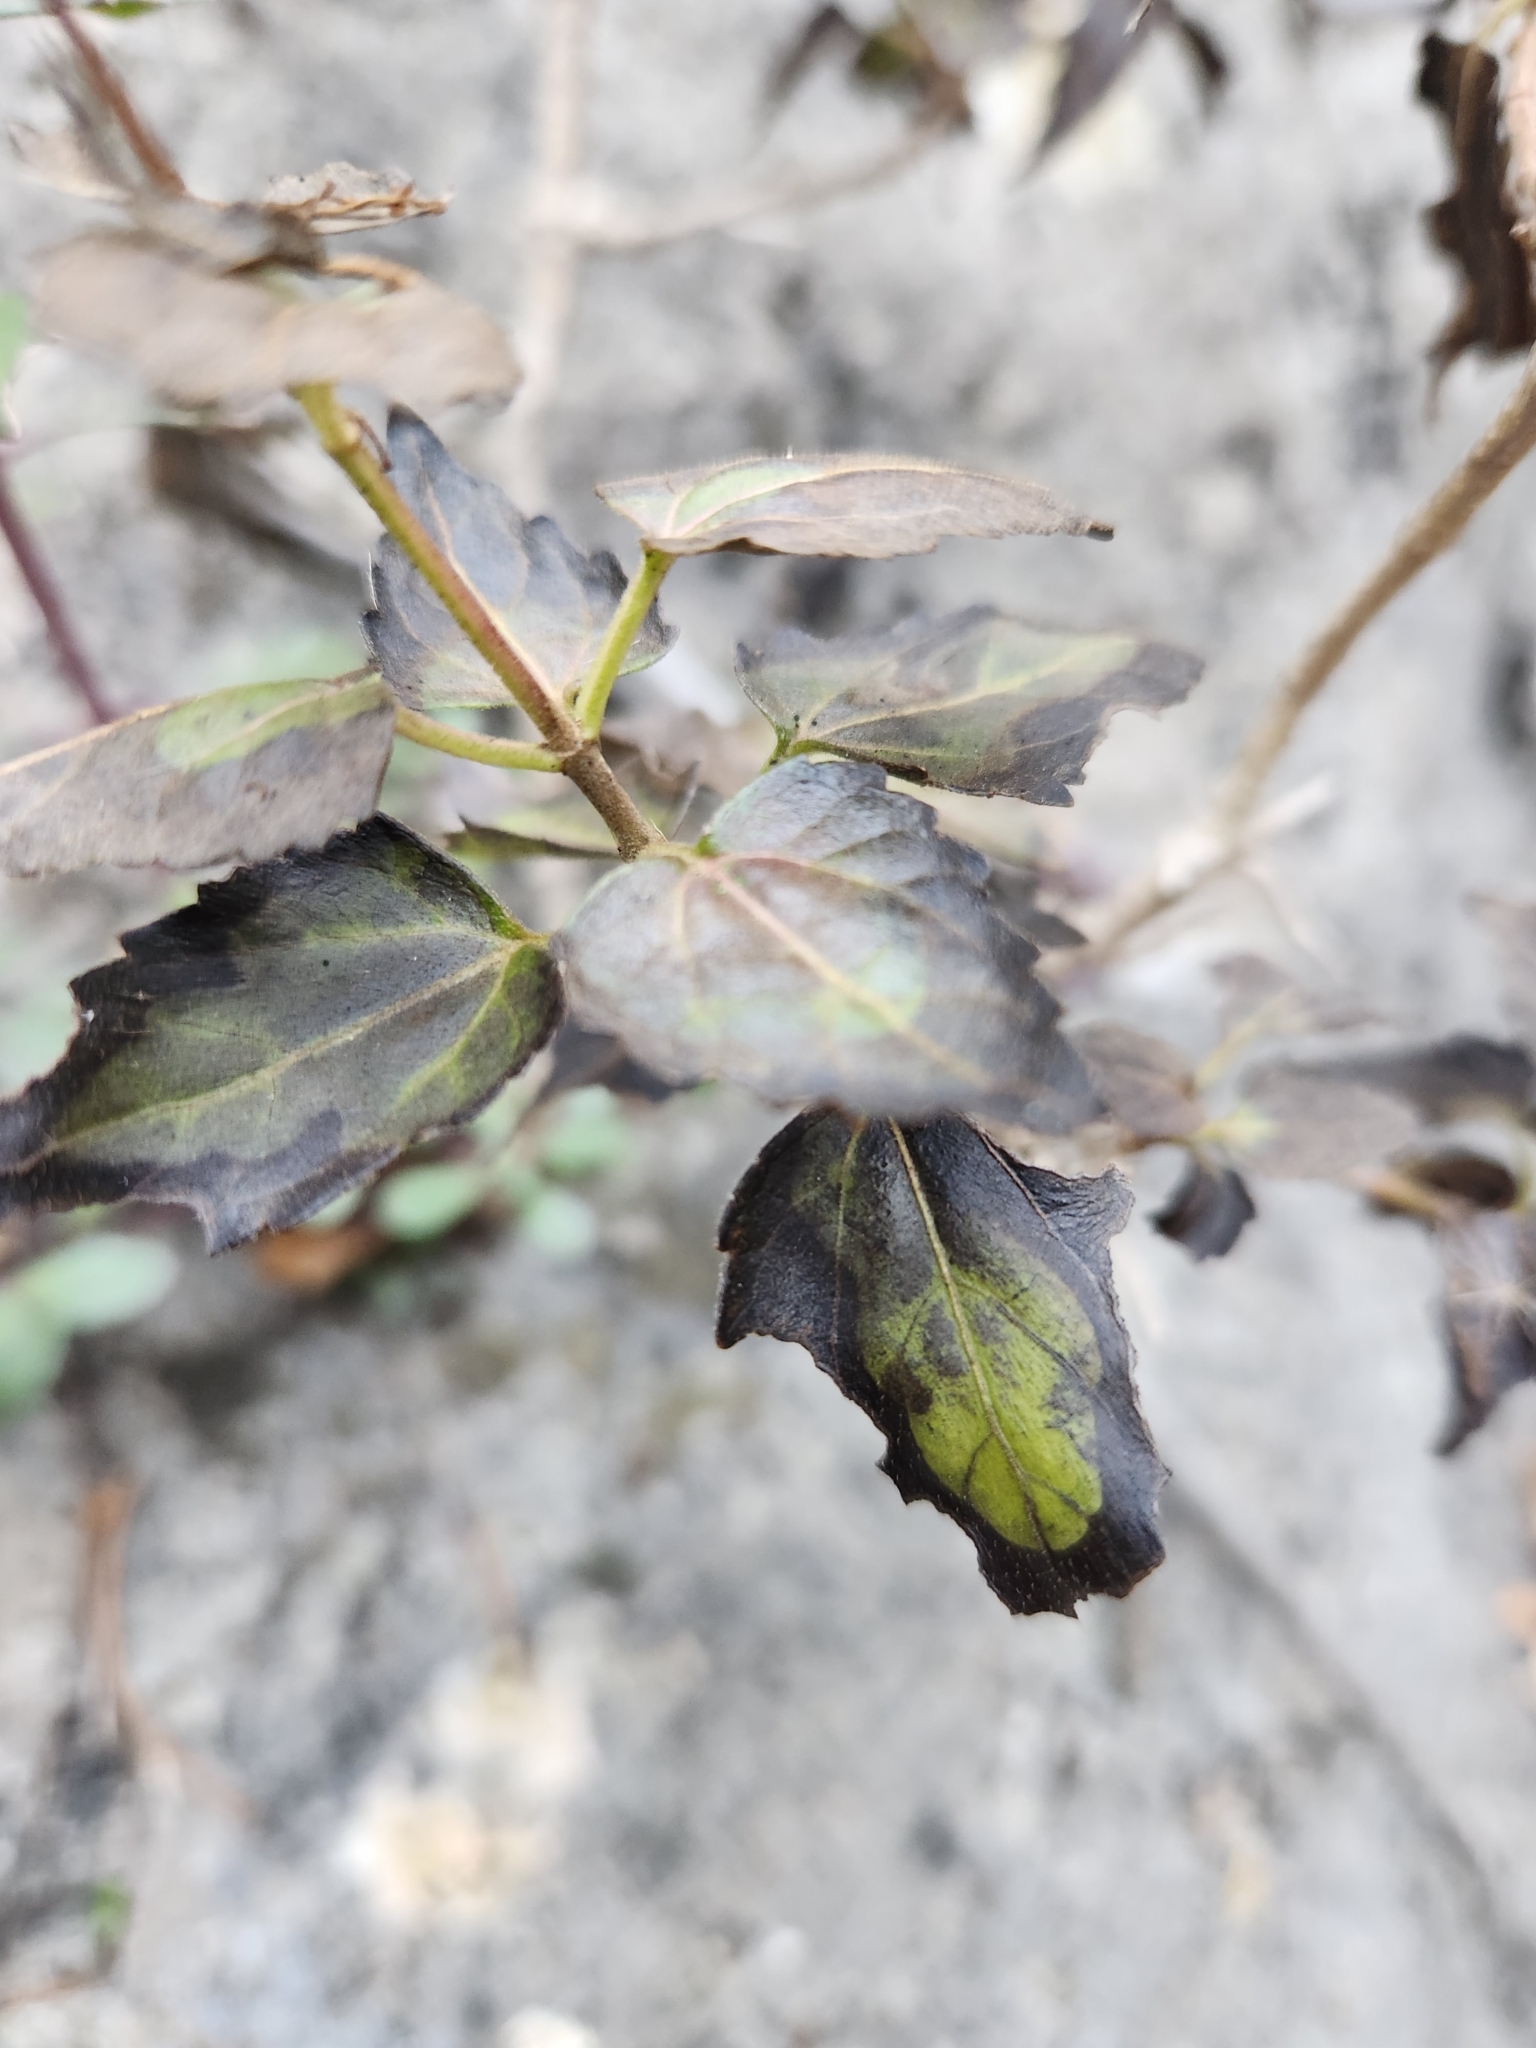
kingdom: Plantae
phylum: Tracheophyta
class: Magnoliopsida
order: Asterales
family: Asteraceae
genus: Ageratina
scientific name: Ageratina havanensis
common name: Havana snakeroot
